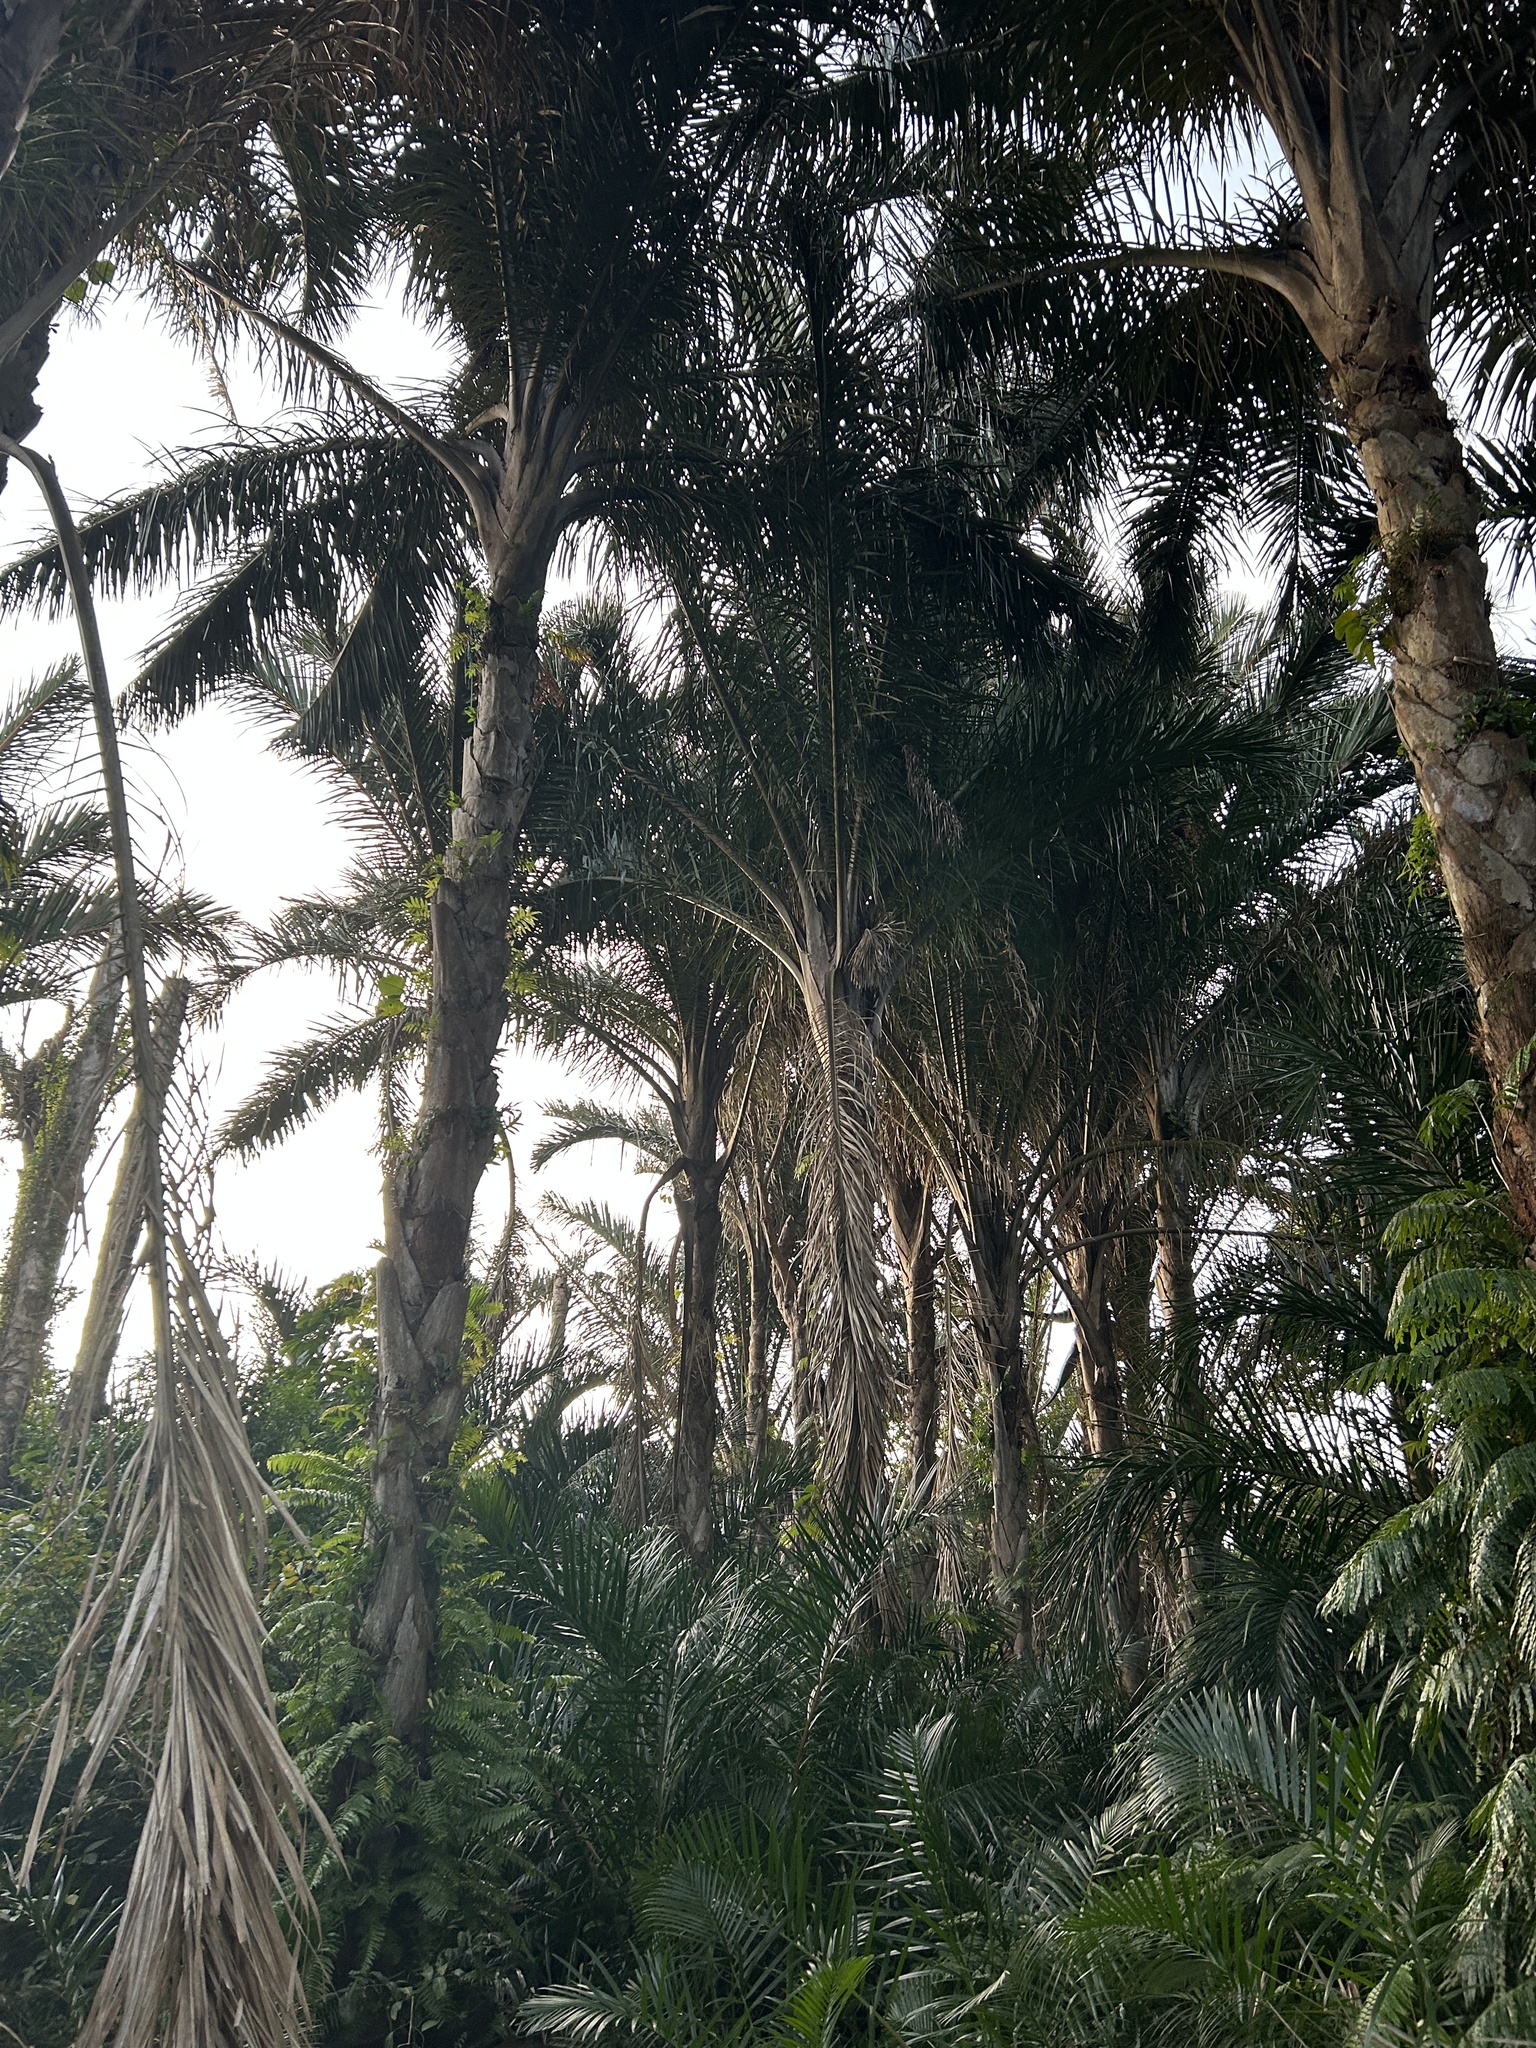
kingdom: Plantae
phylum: Tracheophyta
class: Liliopsida
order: Arecales
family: Arecaceae
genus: Raphia
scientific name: Raphia australis
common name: Giant palm
